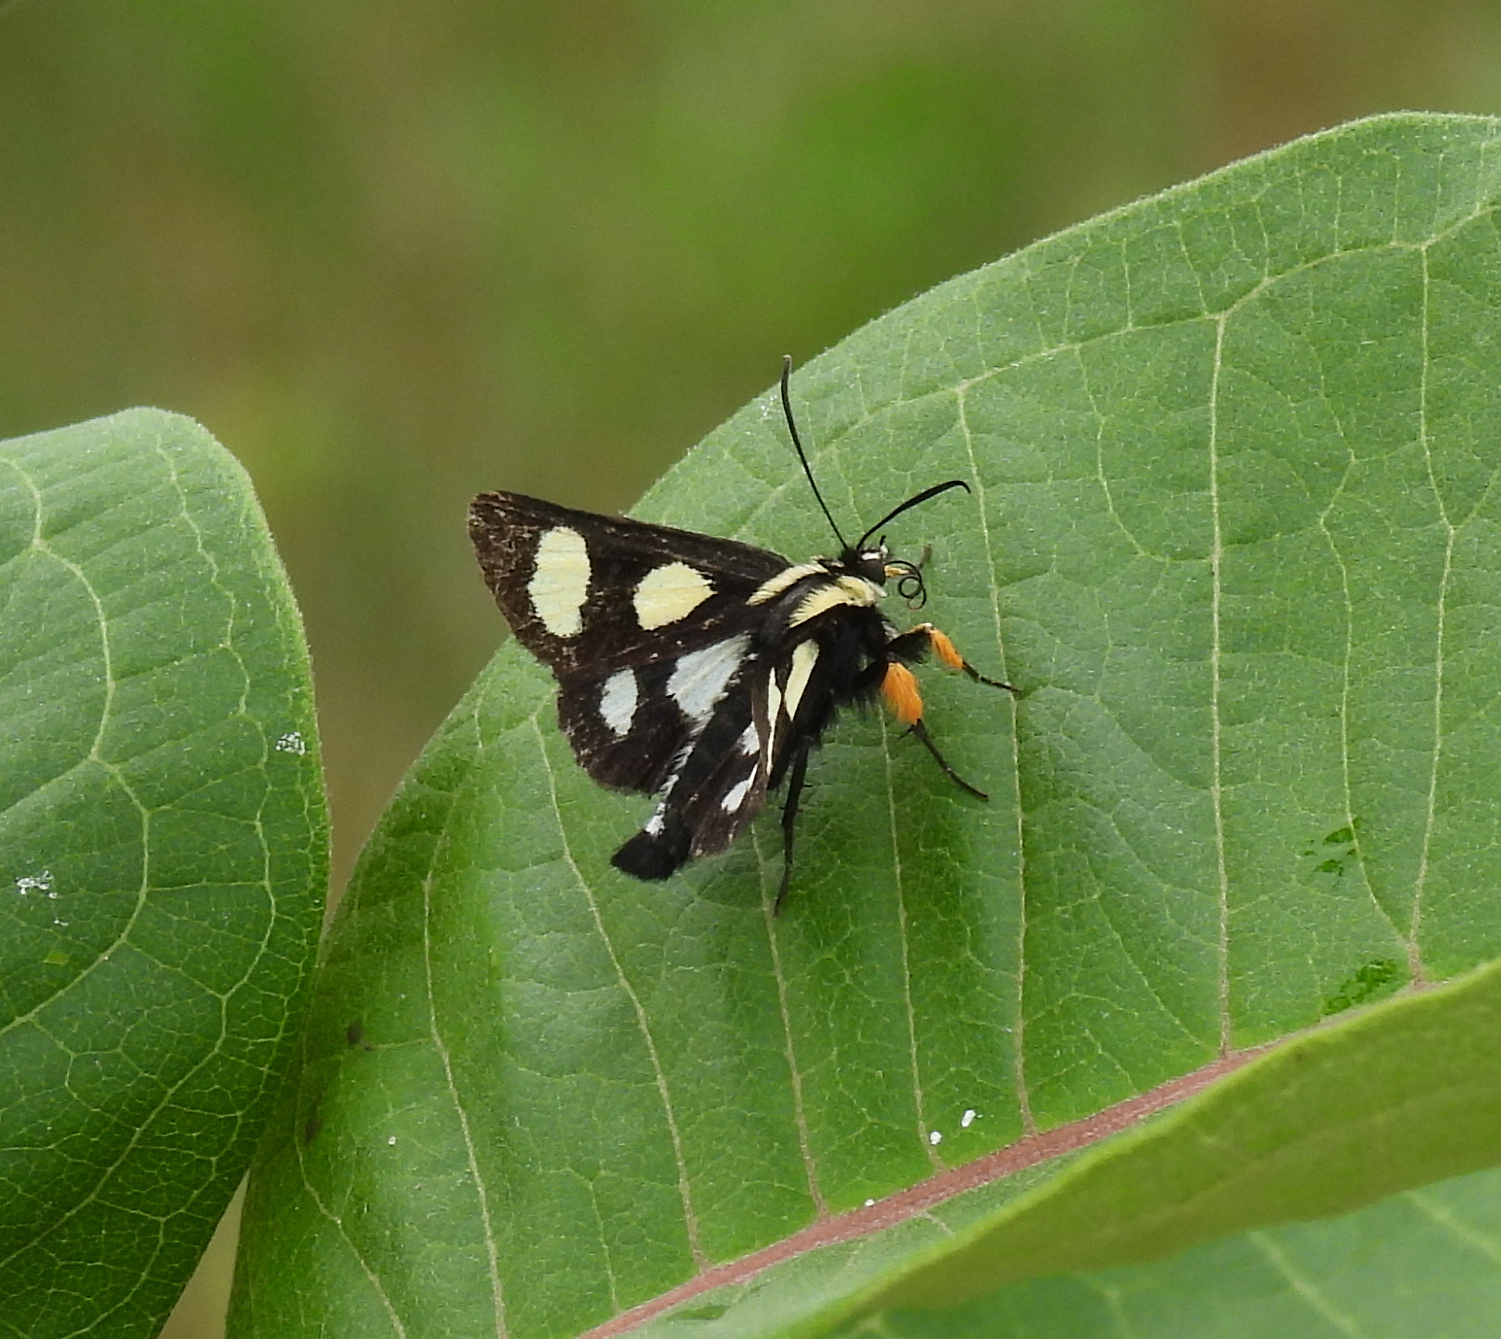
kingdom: Animalia
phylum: Arthropoda
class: Insecta
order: Lepidoptera
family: Noctuidae
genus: Alypia
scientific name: Alypia octomaculata
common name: Eight-spotted forester
